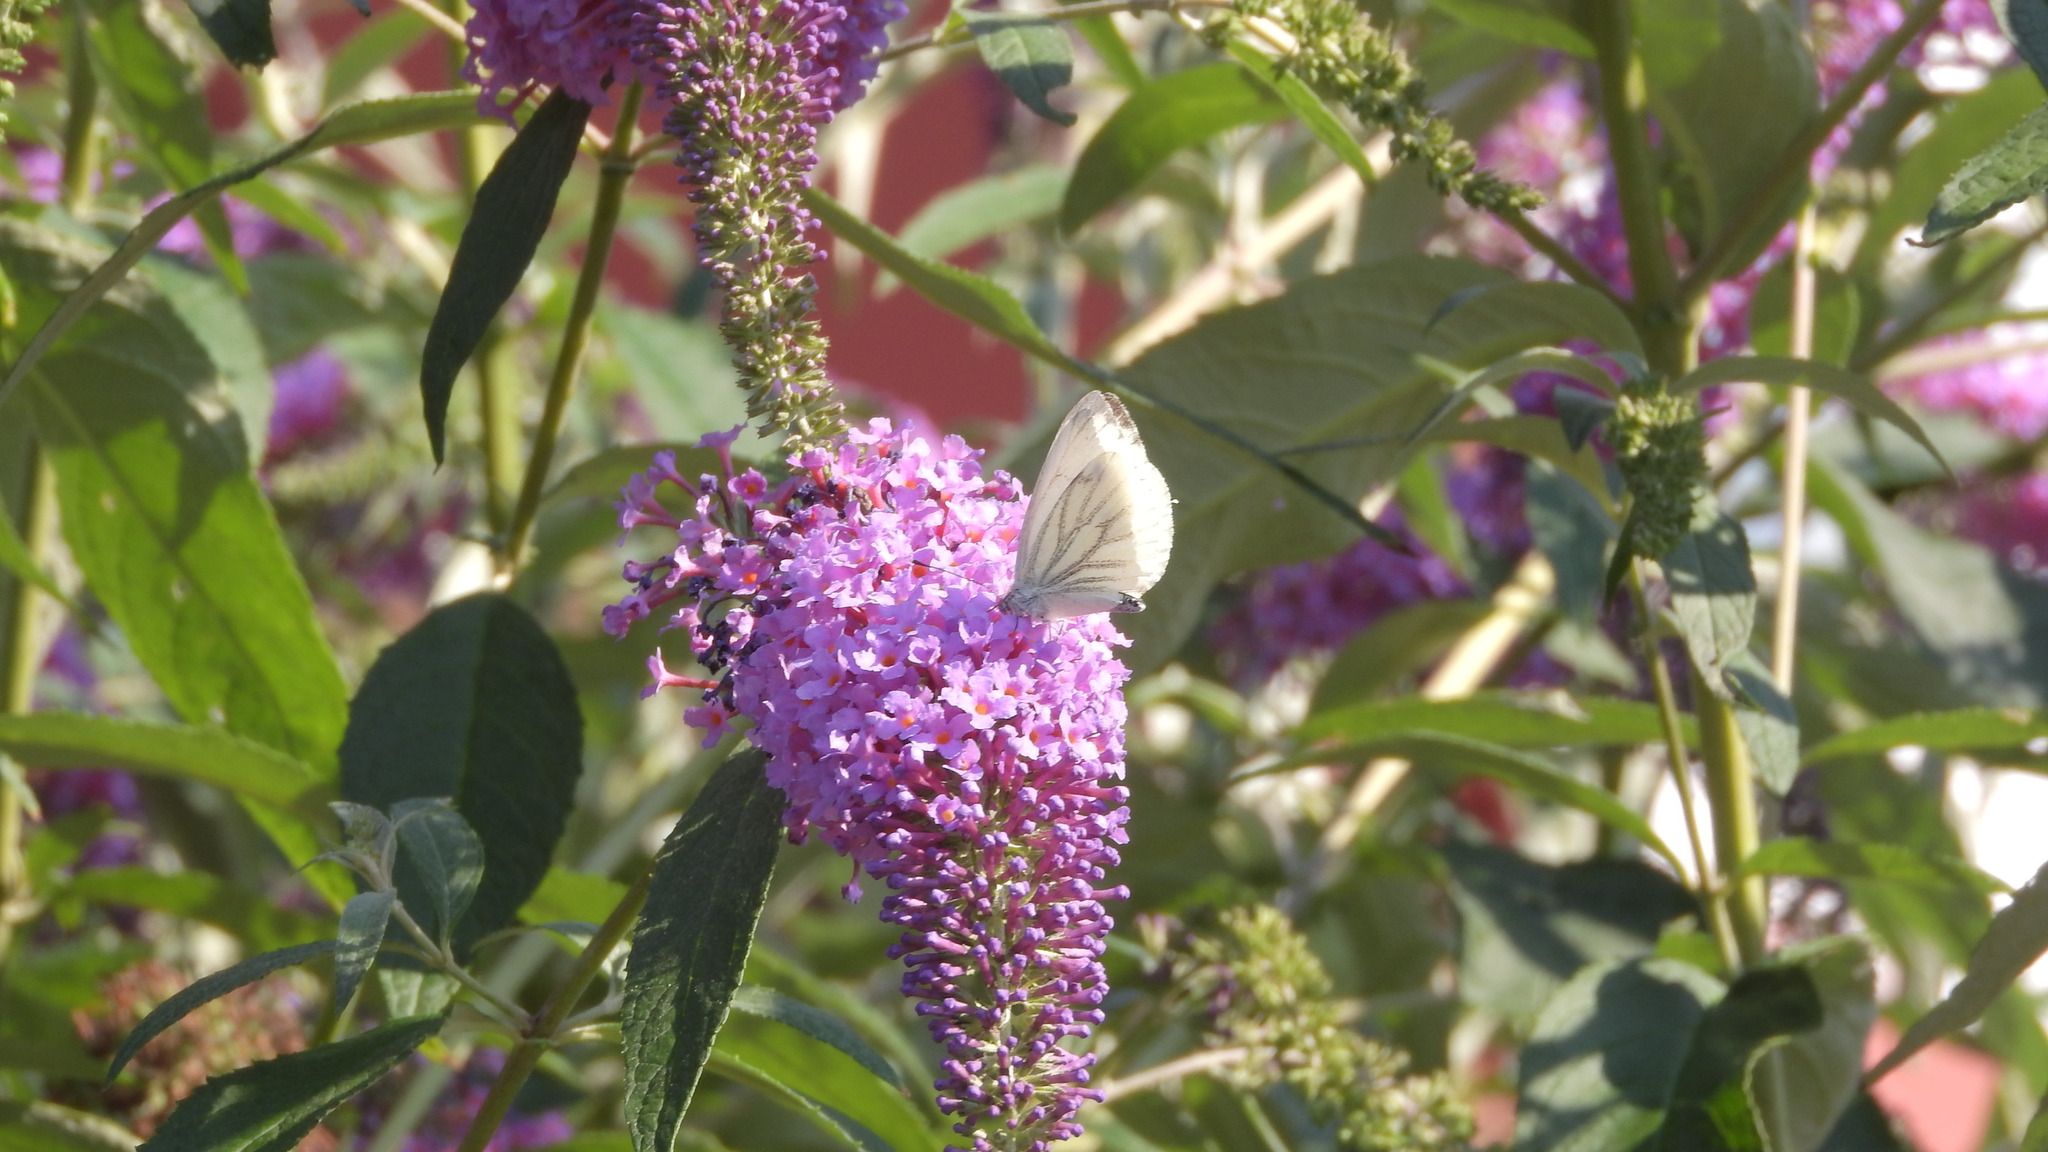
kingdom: Animalia
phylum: Arthropoda
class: Insecta
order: Lepidoptera
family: Pieridae
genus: Pieris
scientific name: Pieris napi
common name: Green-veined white
